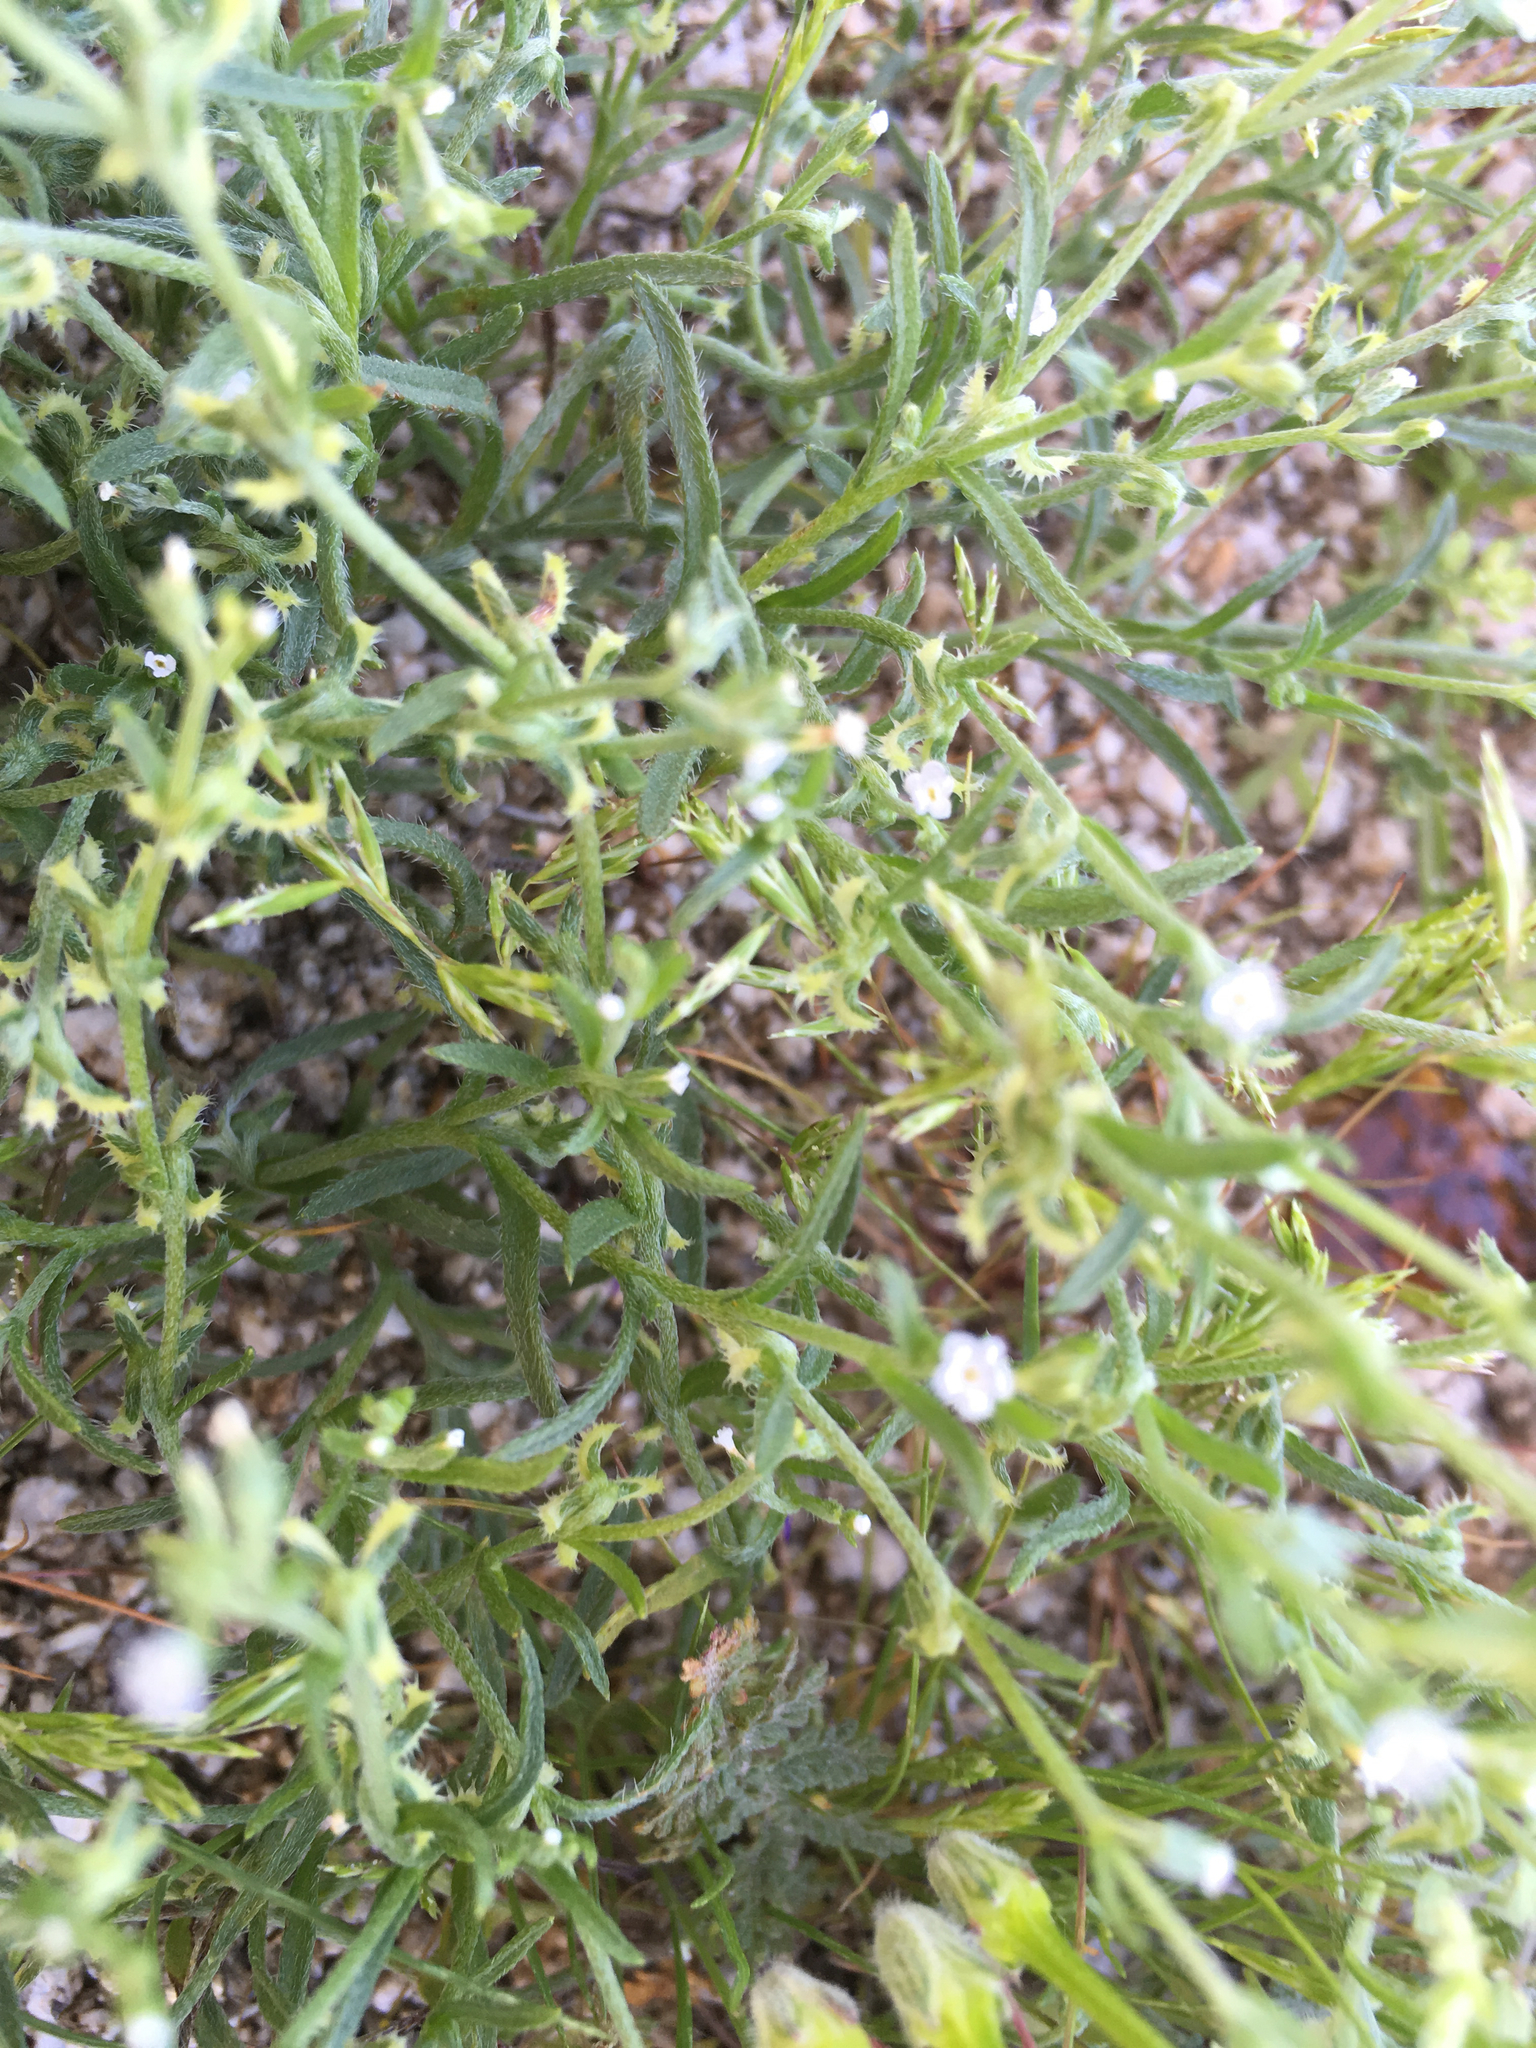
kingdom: Plantae
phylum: Tracheophyta
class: Magnoliopsida
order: Boraginales
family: Boraginaceae
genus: Pectocarya
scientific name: Pectocarya recurvata
